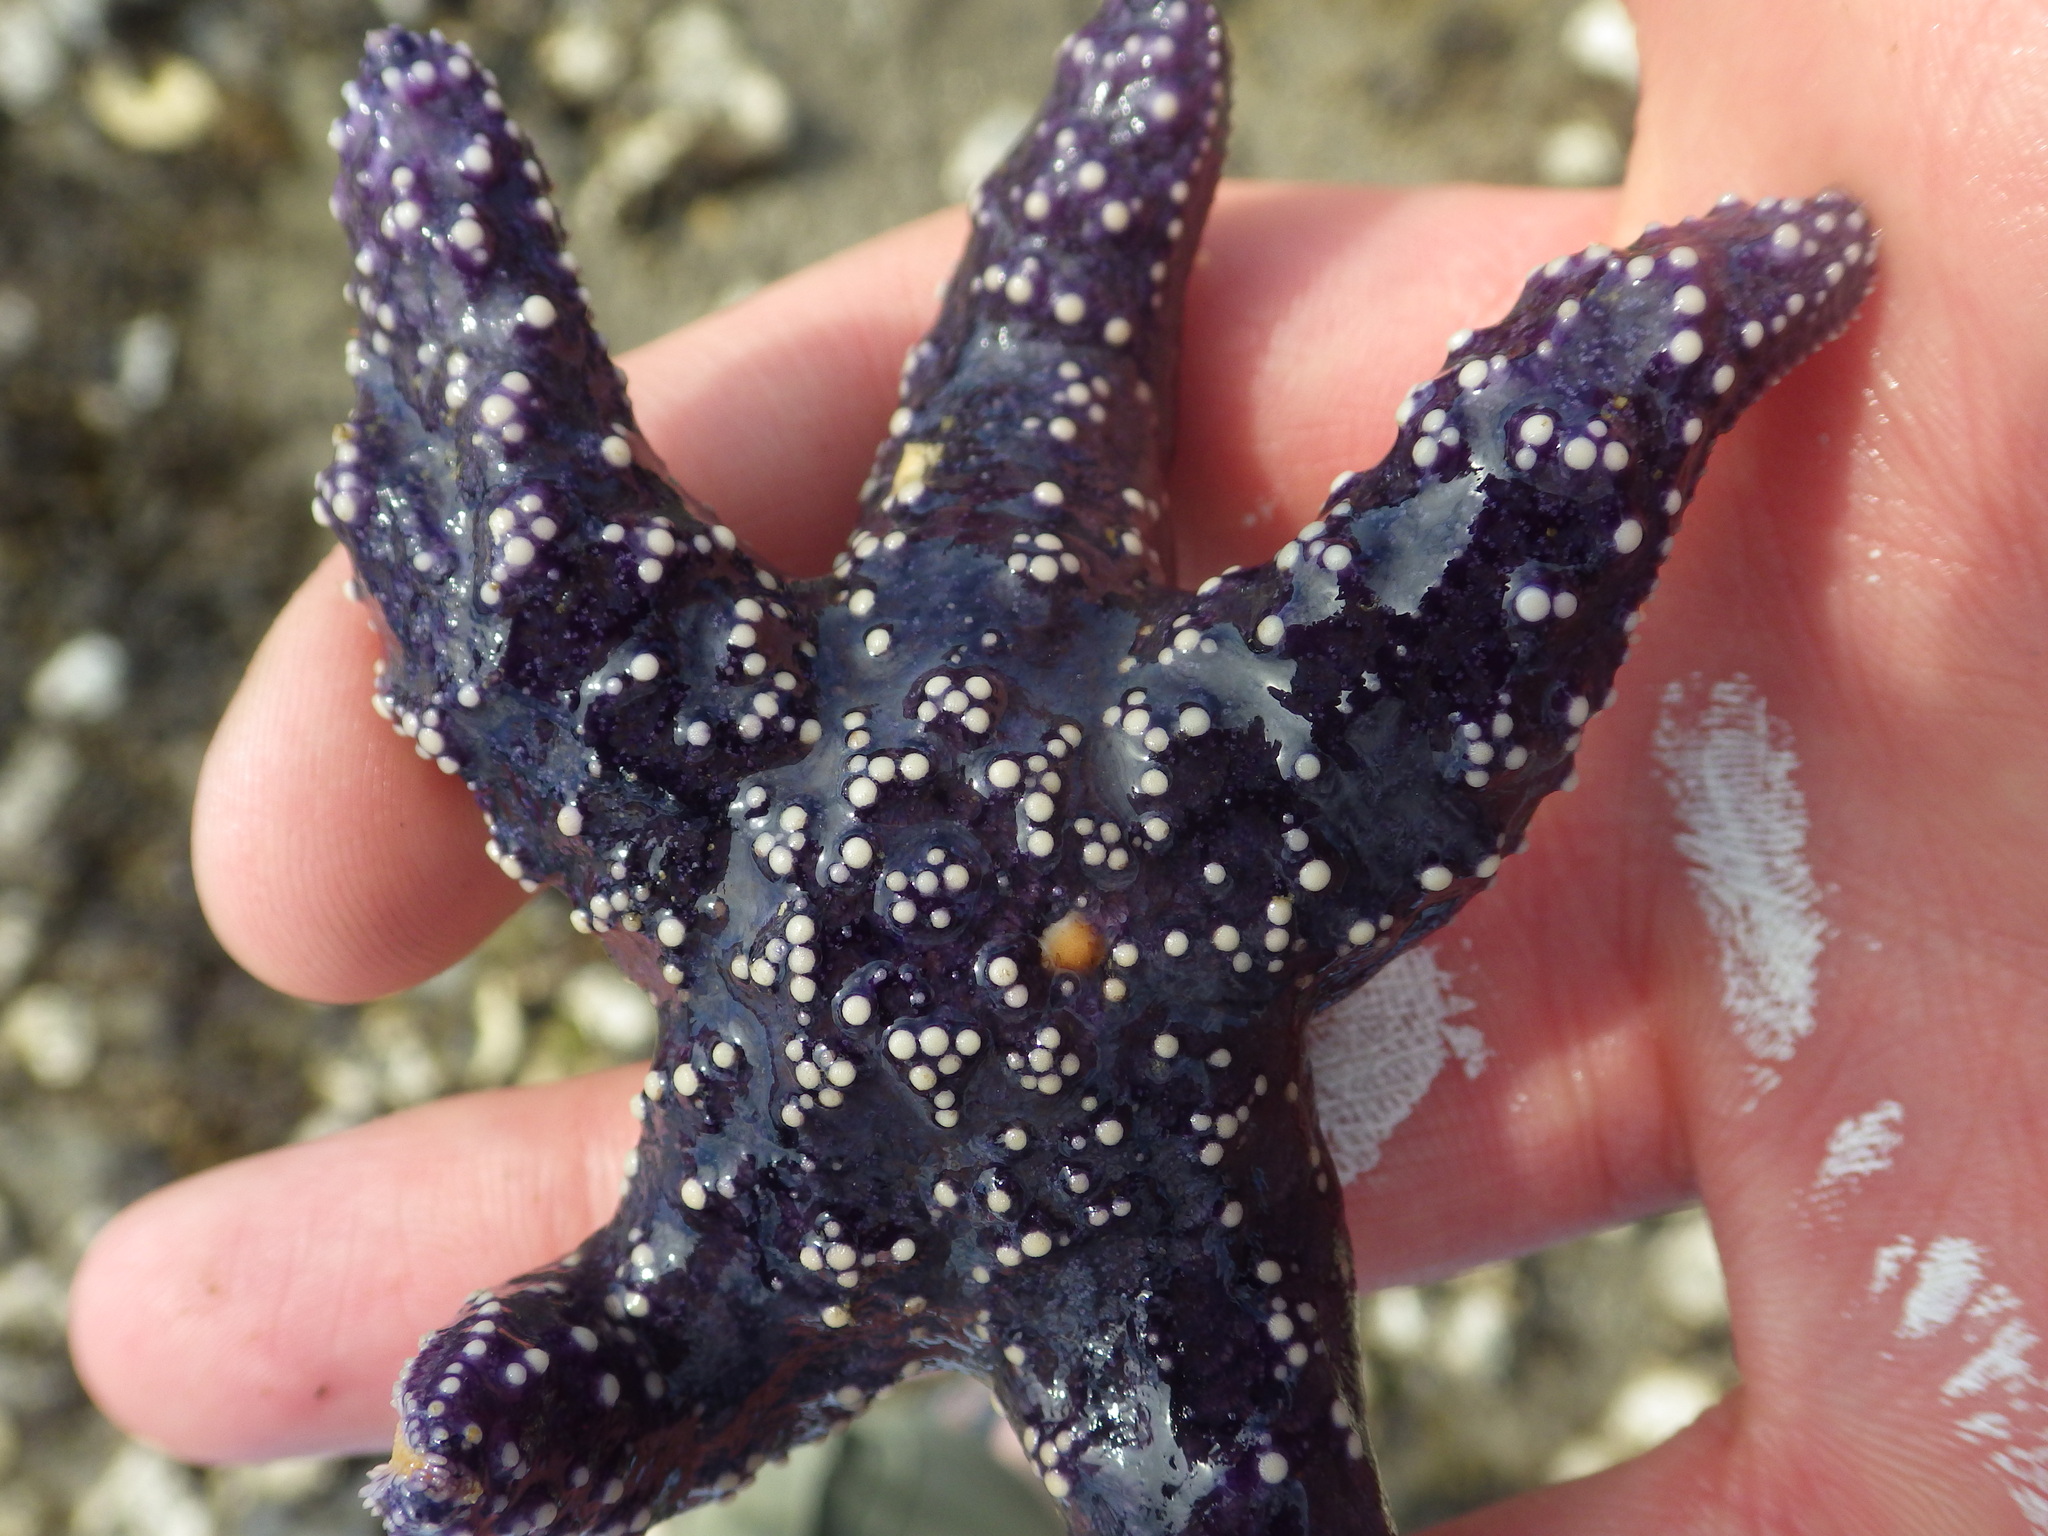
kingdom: Animalia
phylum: Echinodermata
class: Asteroidea
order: Forcipulatida
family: Asteriidae
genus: Pisaster
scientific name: Pisaster ochraceus
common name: Ochre stars
